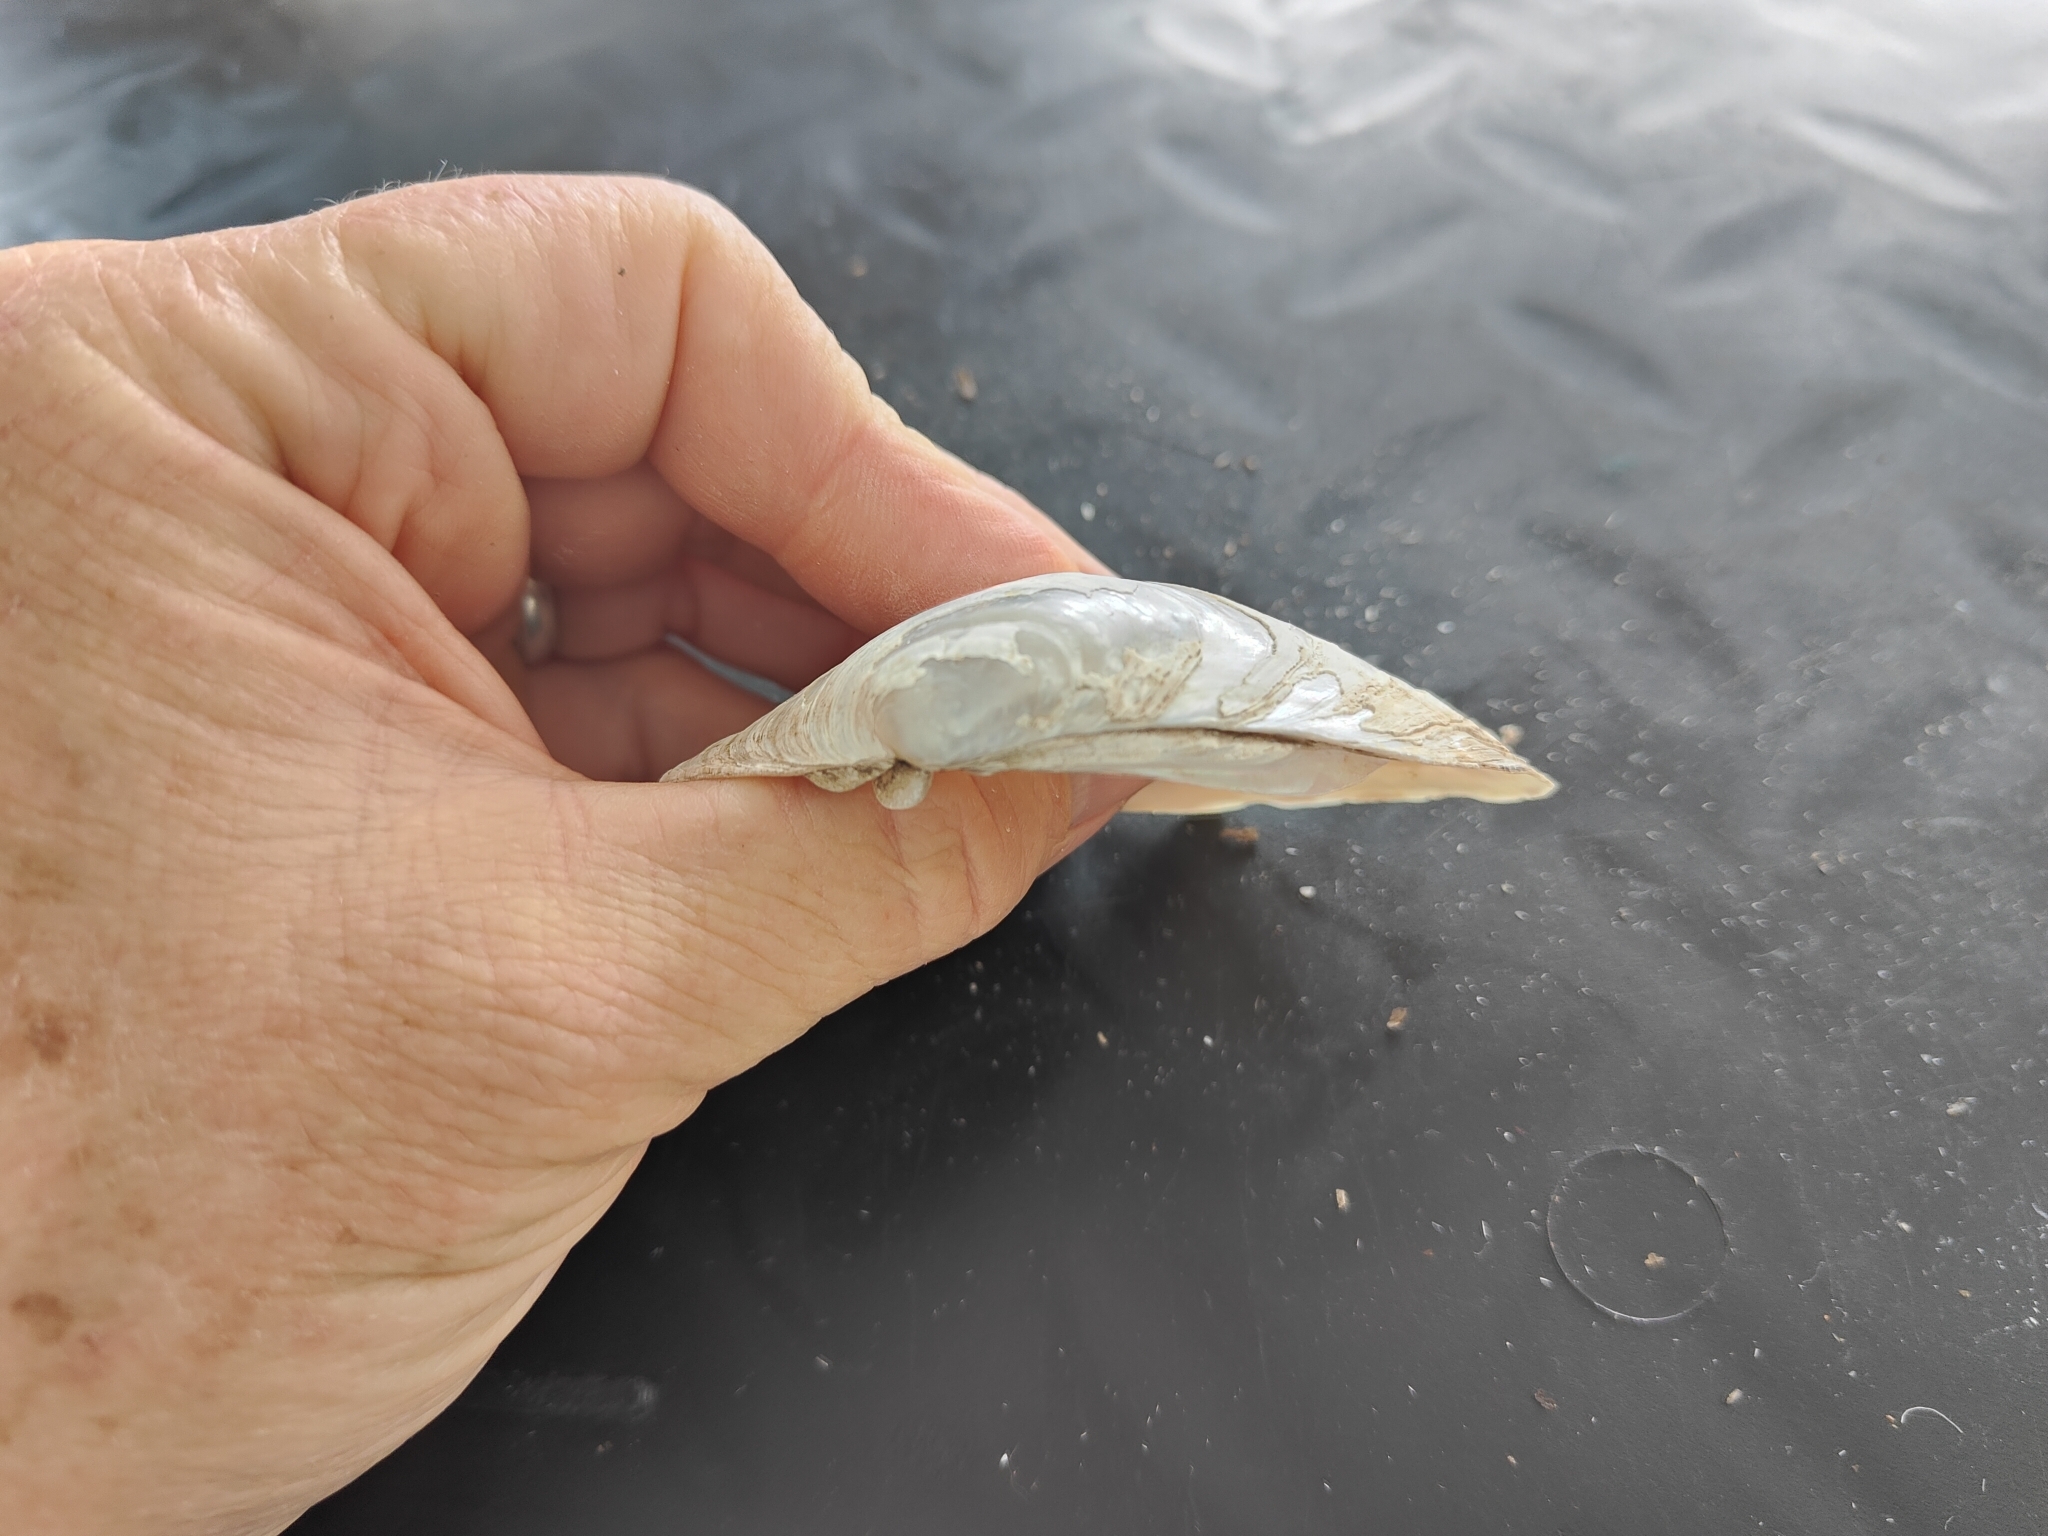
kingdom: Animalia
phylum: Mollusca
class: Bivalvia
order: Unionida
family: Unionidae
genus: Lampsilis
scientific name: Lampsilis cardium
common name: Plain pocketbook
